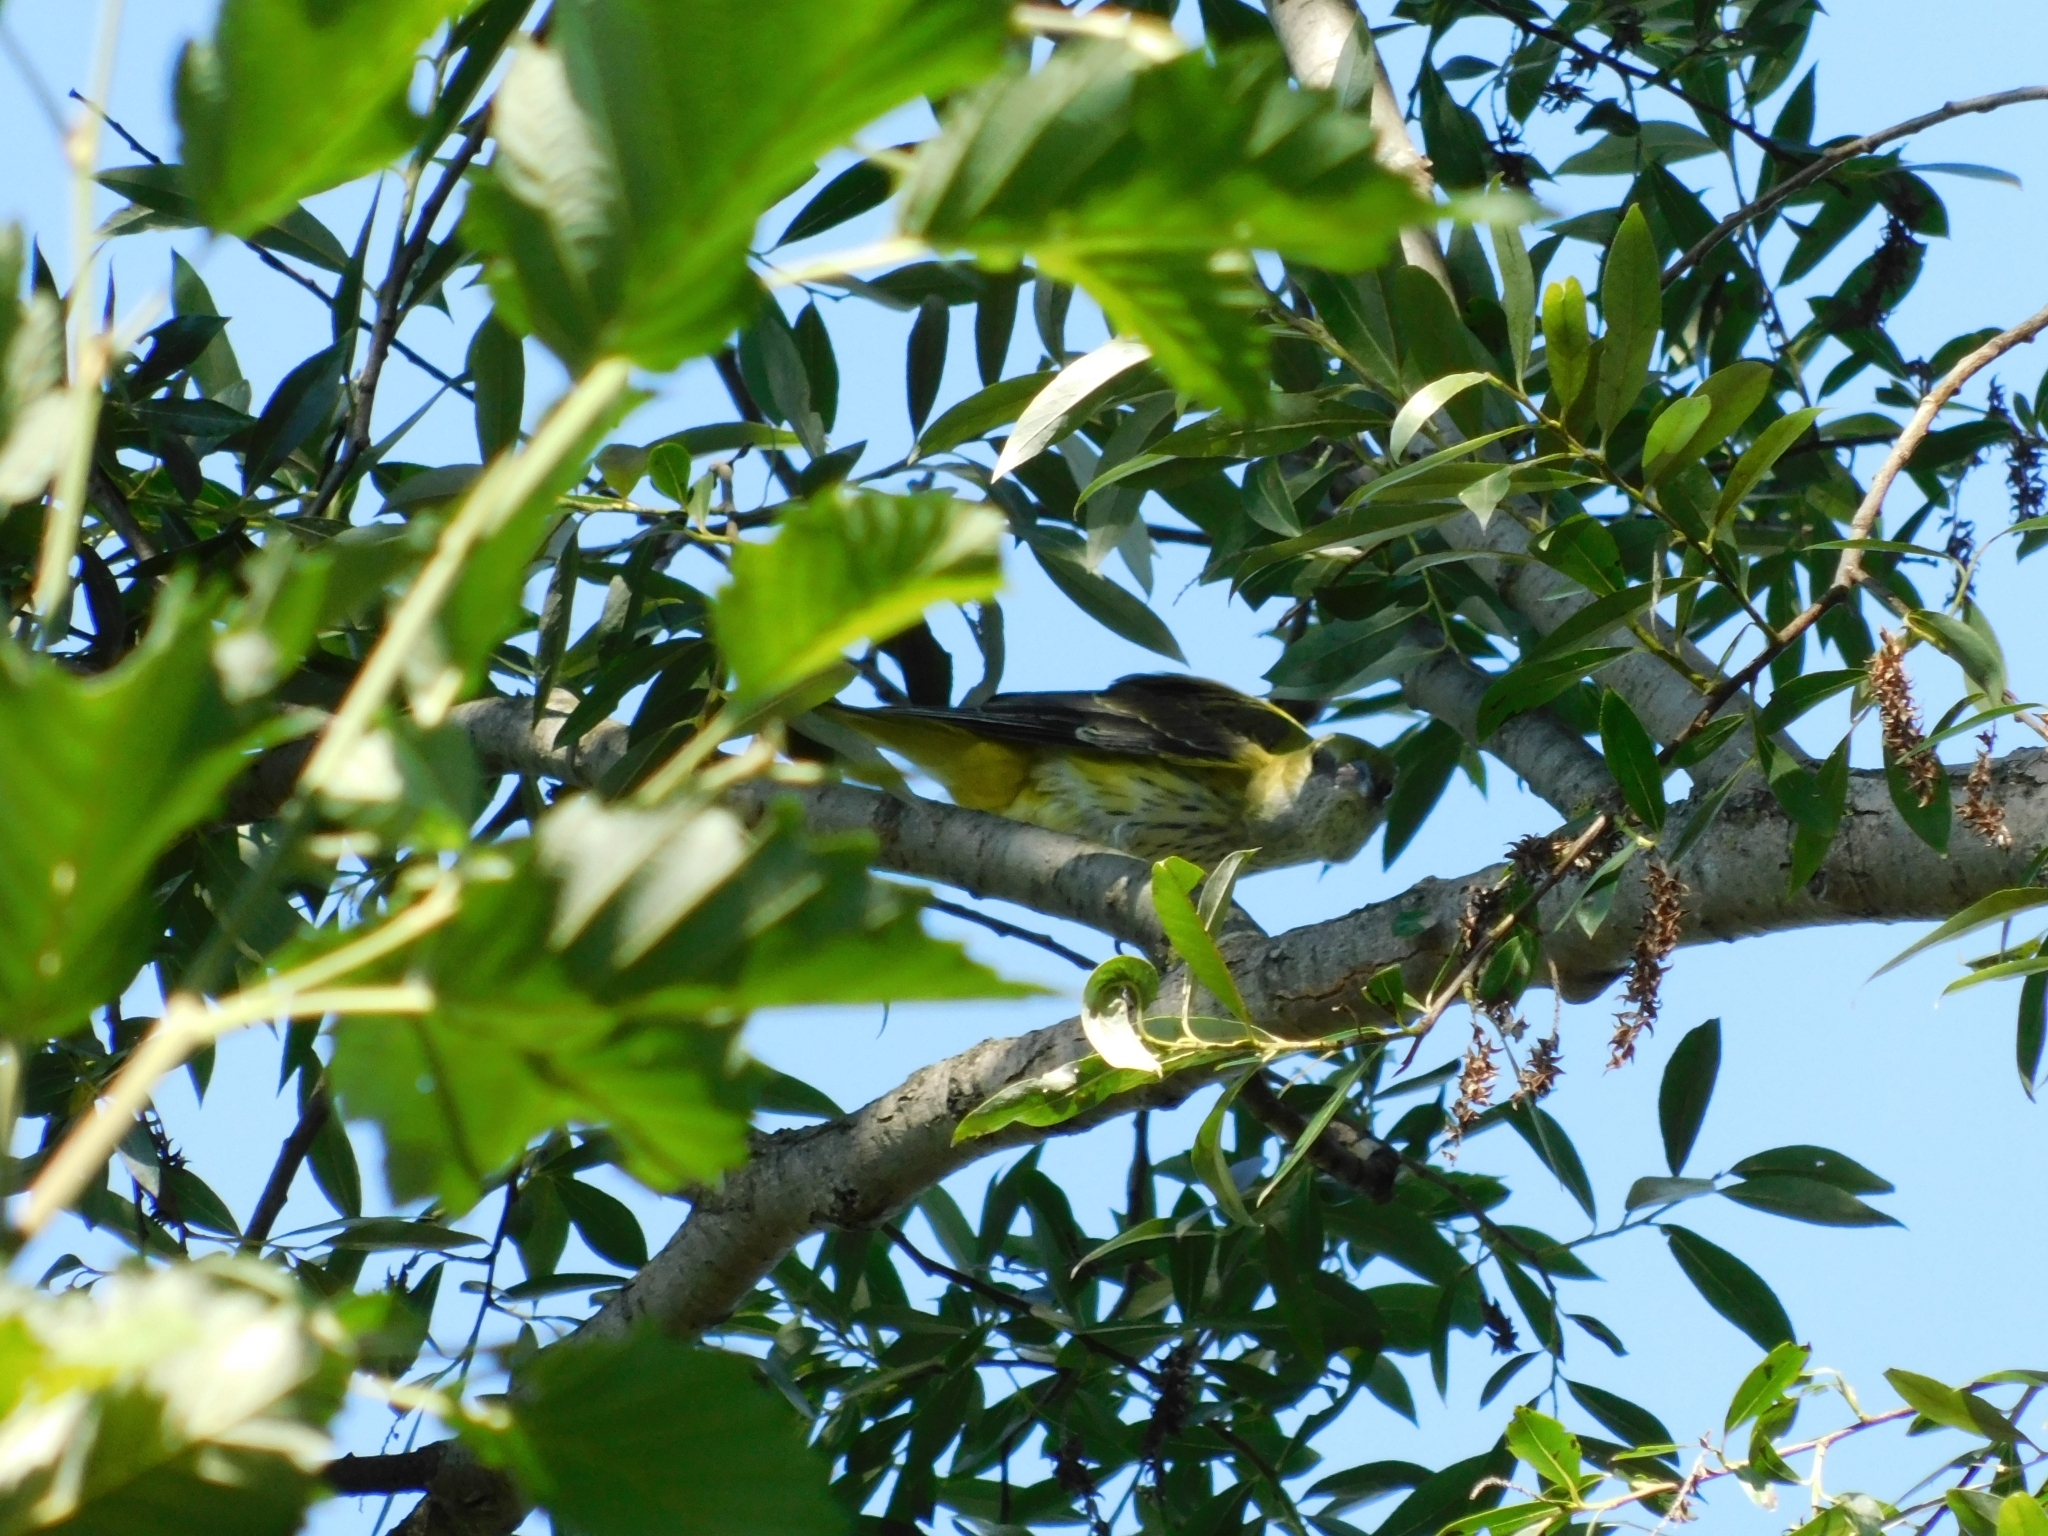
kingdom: Animalia
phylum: Chordata
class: Aves
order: Passeriformes
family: Oriolidae
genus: Oriolus
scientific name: Oriolus oriolus
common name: Eurasian golden oriole
